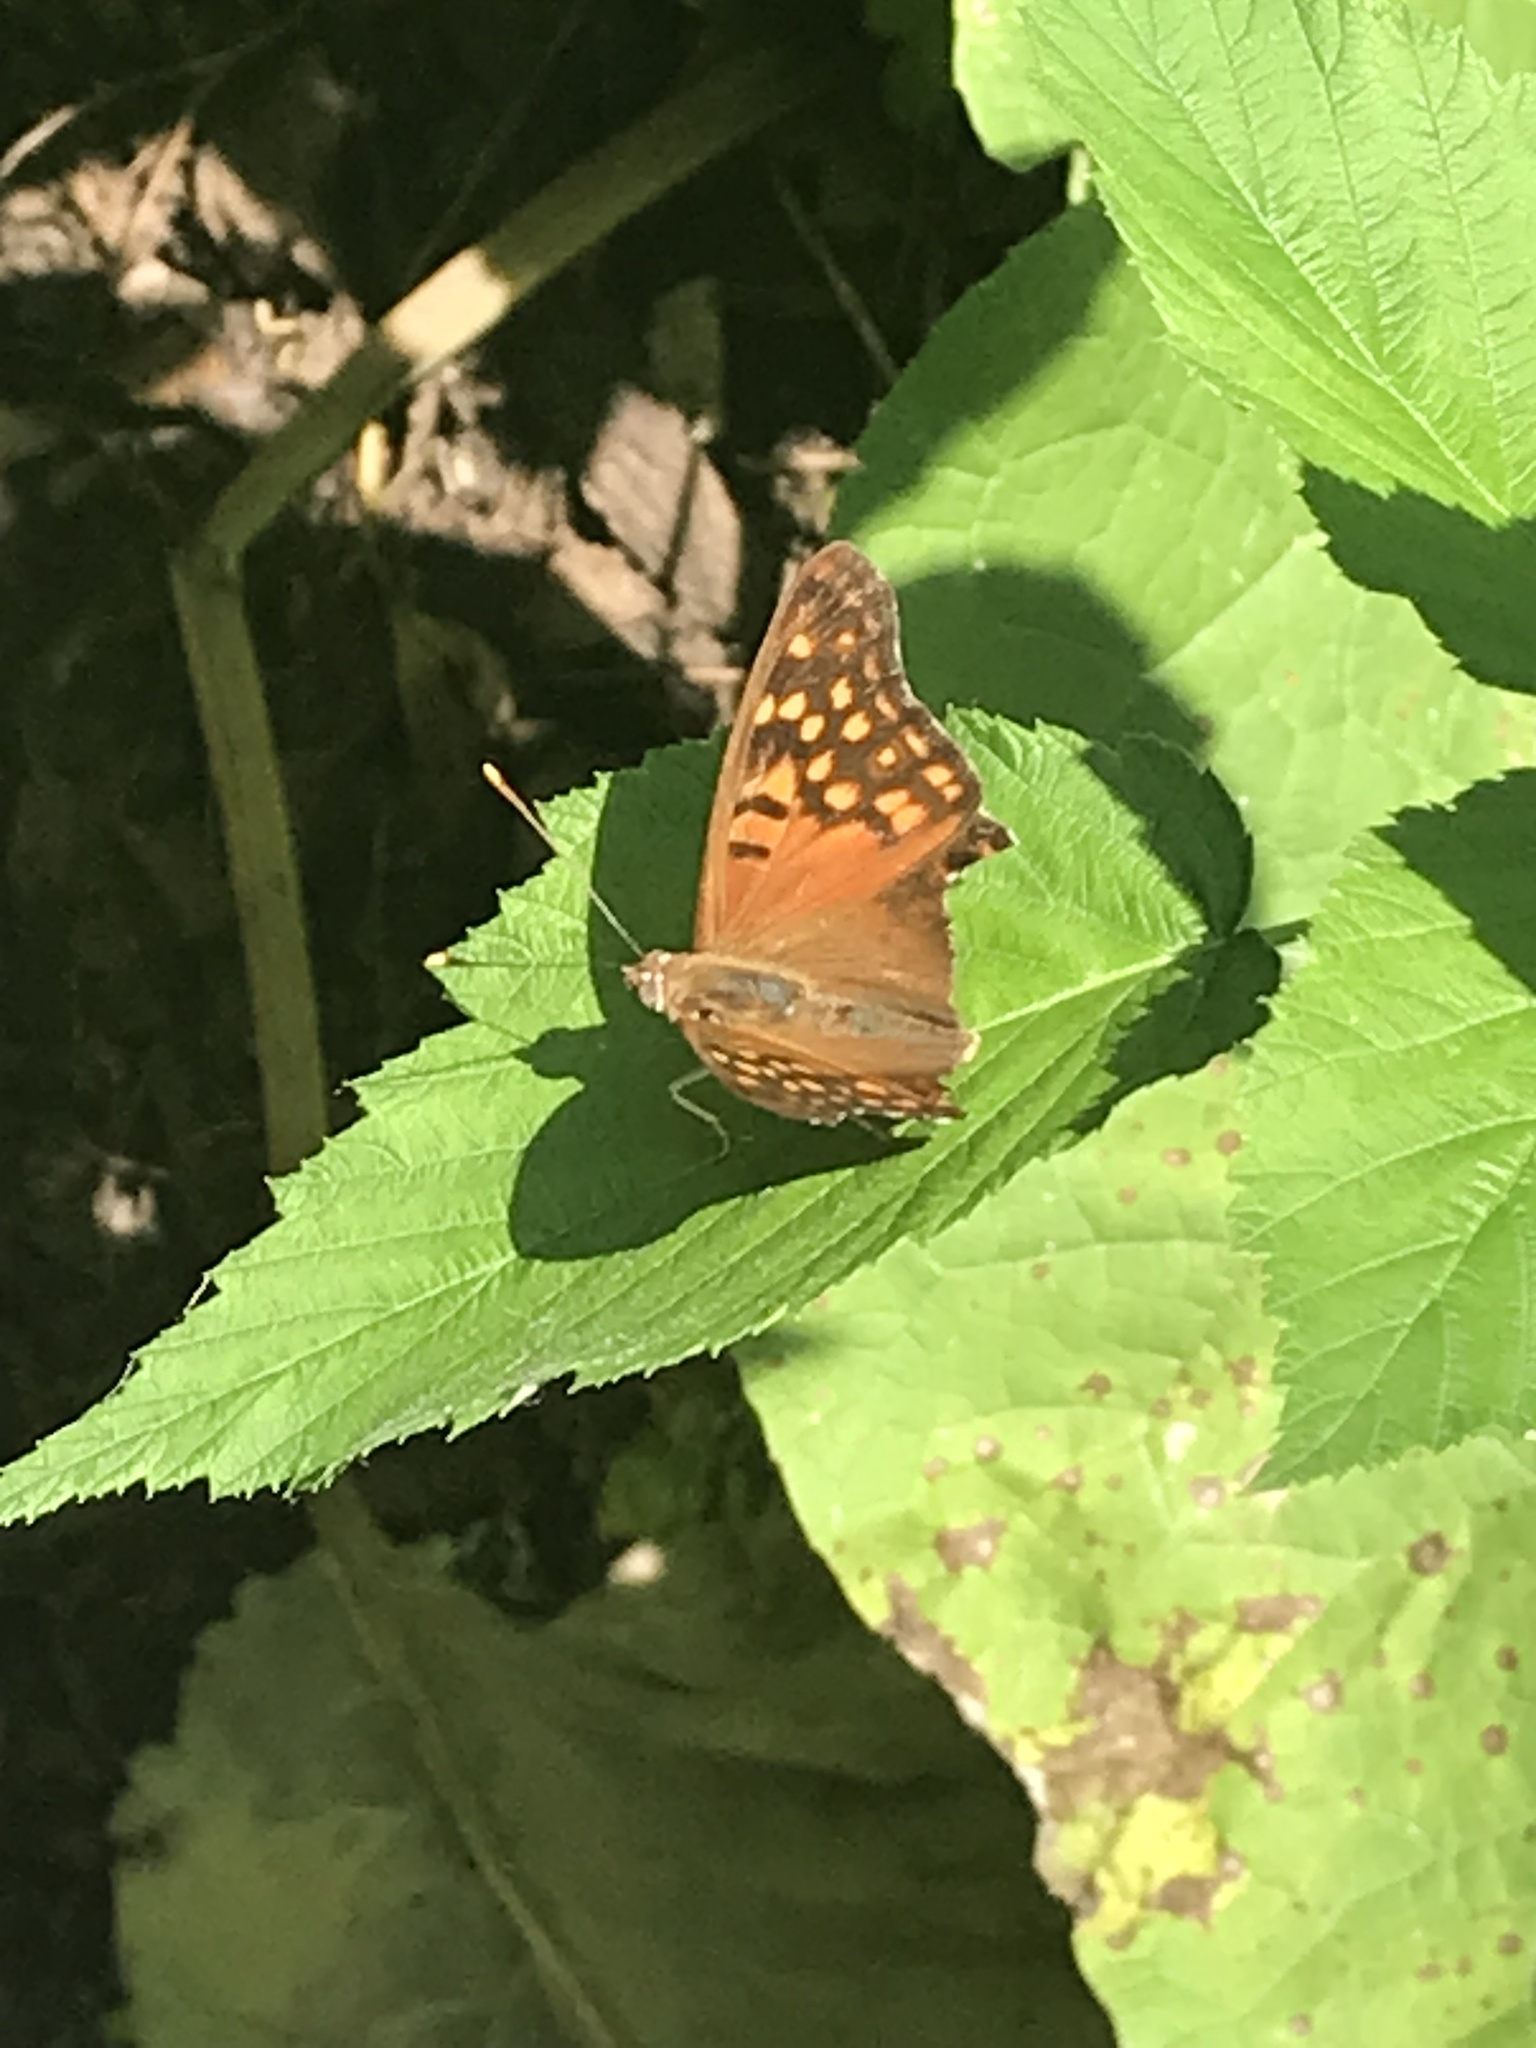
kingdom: Animalia
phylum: Arthropoda
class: Insecta
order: Lepidoptera
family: Nymphalidae
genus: Asterocampa
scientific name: Asterocampa clyton
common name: Tawny emperor
